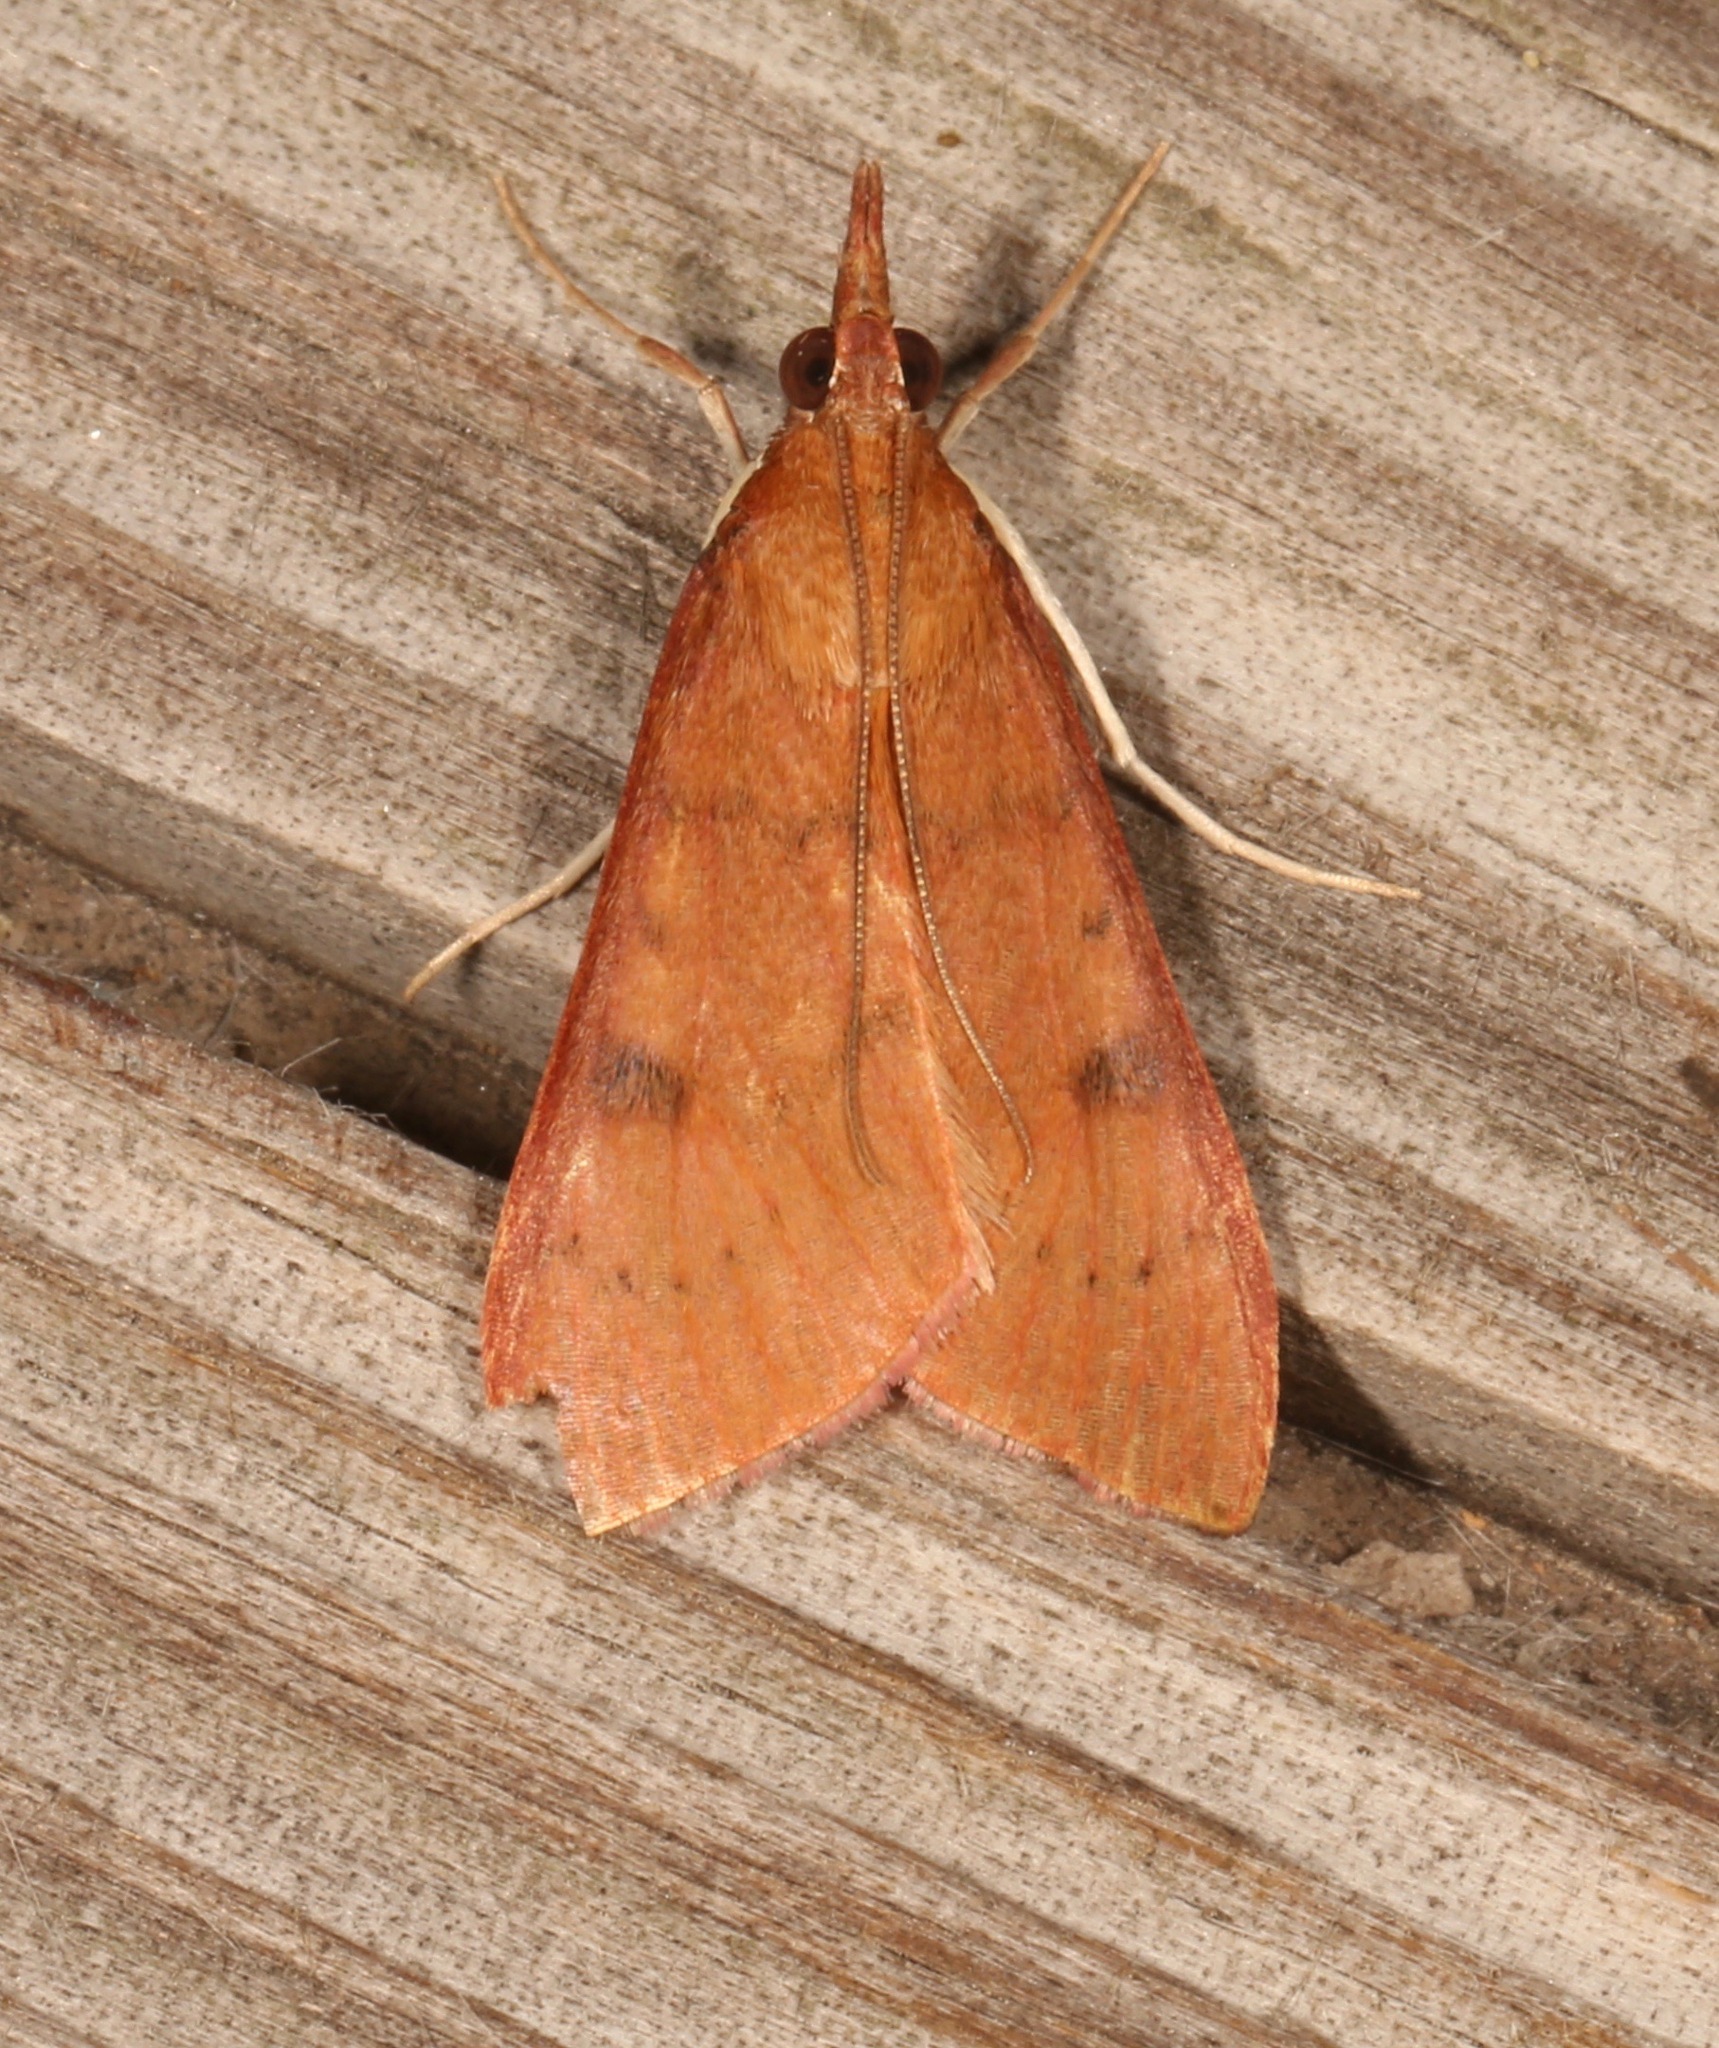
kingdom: Animalia
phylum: Arthropoda
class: Insecta
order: Lepidoptera
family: Crambidae
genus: Uresiphita
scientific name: Uresiphita reversalis
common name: Genista broom moth
